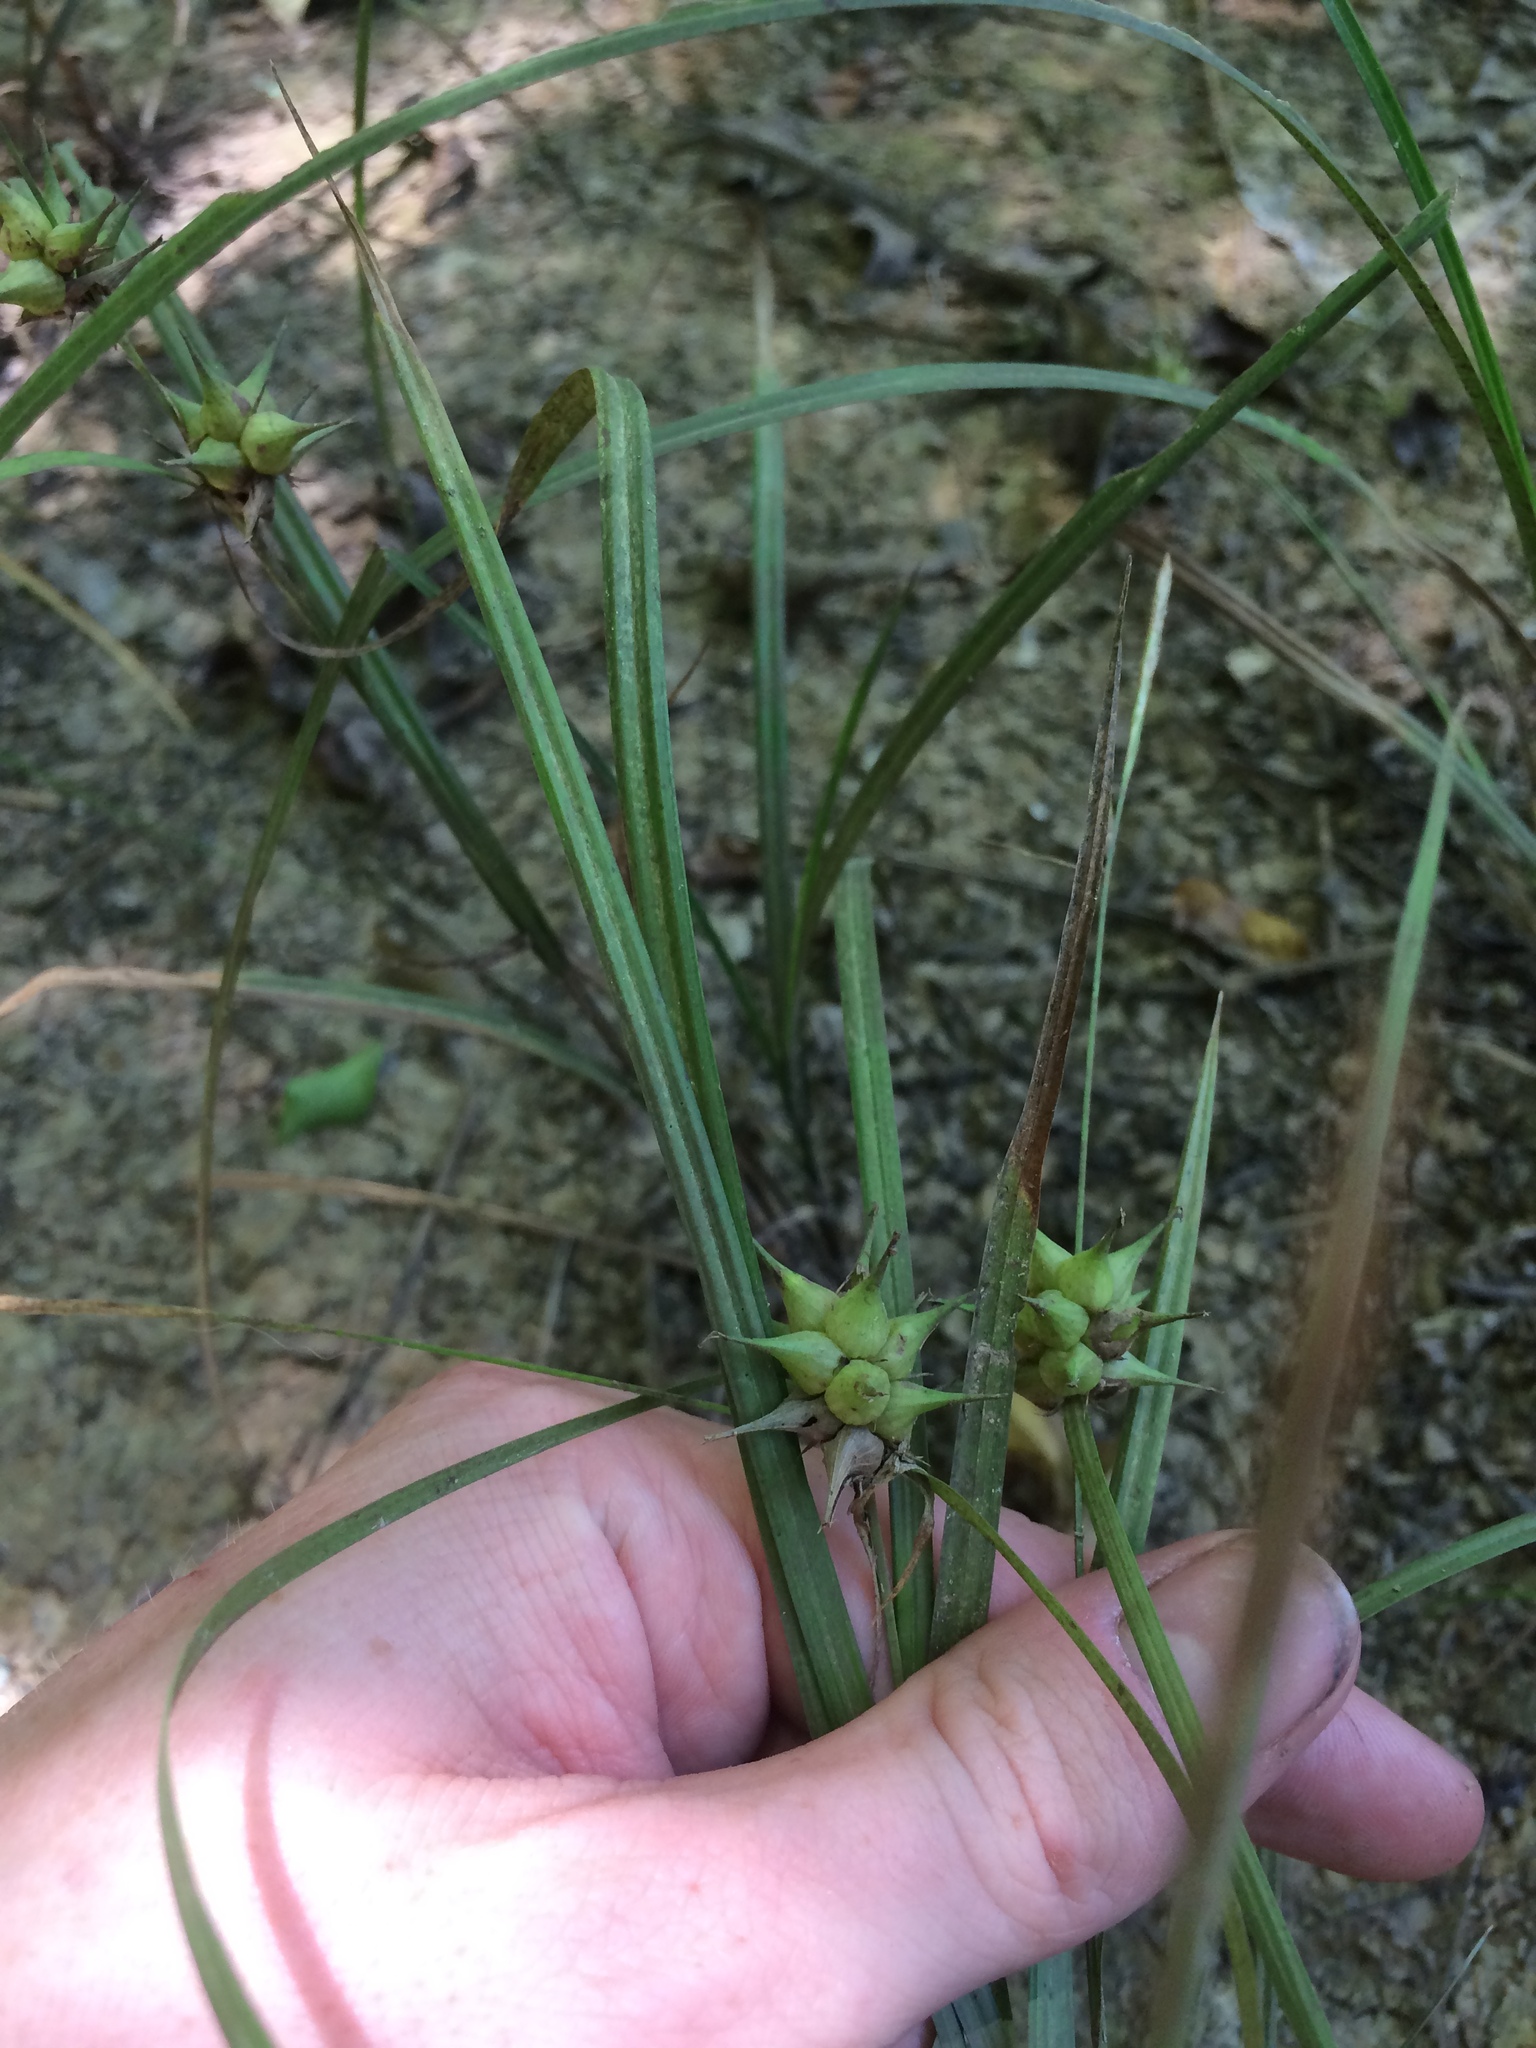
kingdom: Plantae
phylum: Tracheophyta
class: Liliopsida
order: Poales
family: Cyperaceae
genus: Carex
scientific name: Carex louisianica
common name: Louisiana sedge
